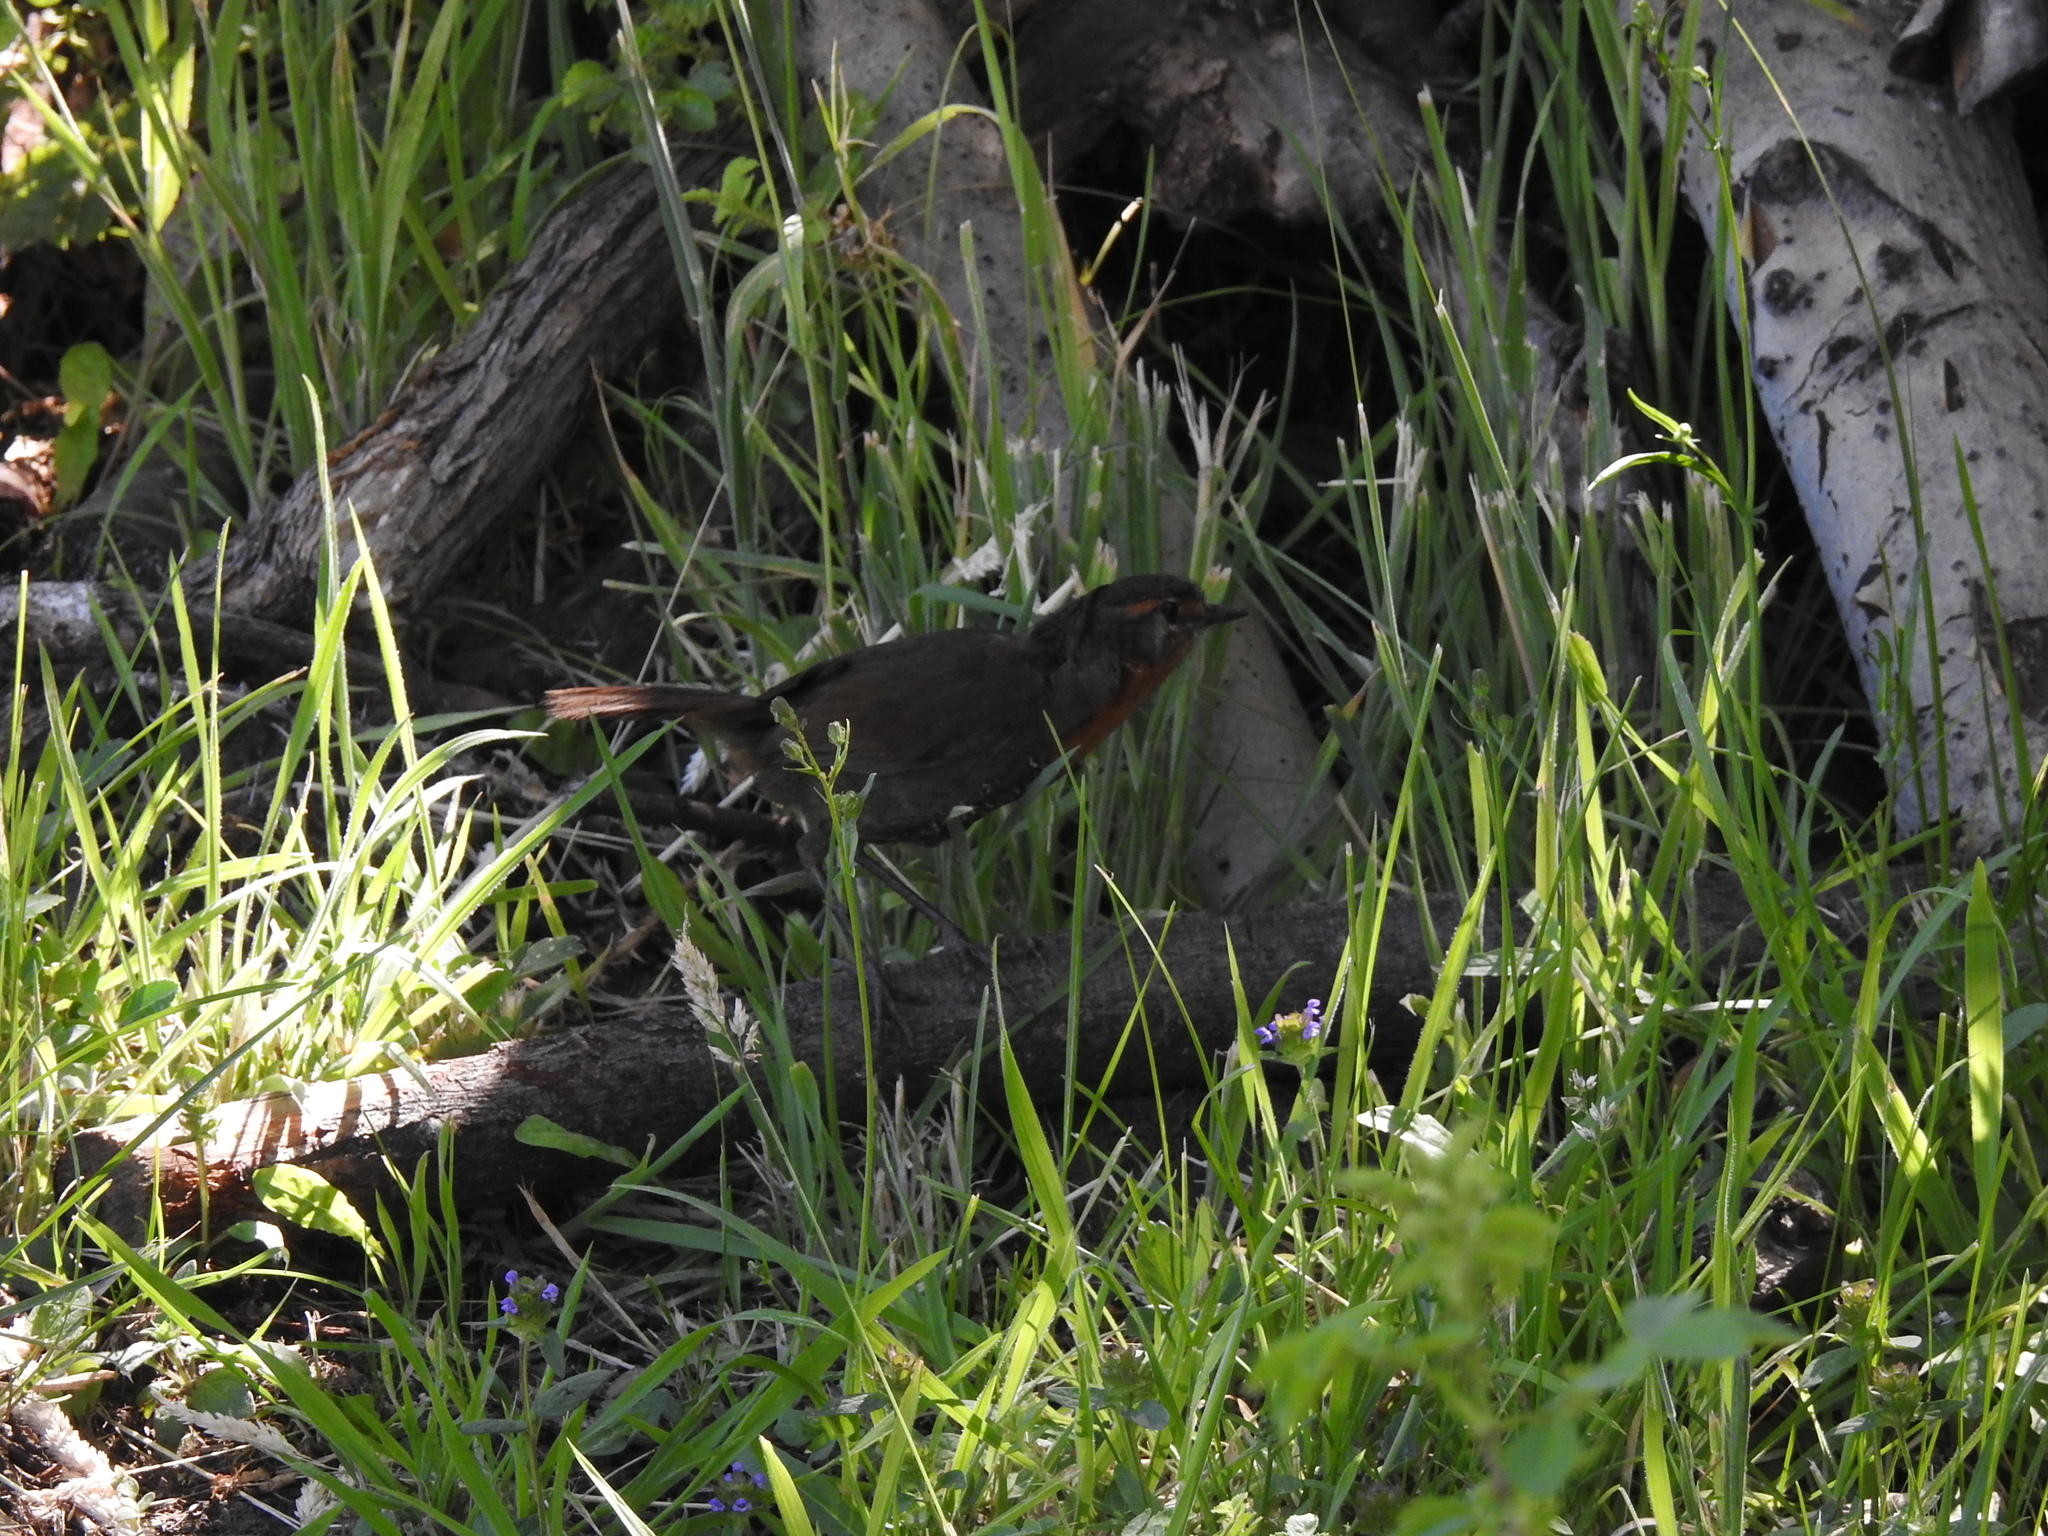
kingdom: Animalia
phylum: Chordata
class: Aves
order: Passeriformes
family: Rhinocryptidae
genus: Scelorchilus
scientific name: Scelorchilus rubecula
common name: Chucao tapaculo
